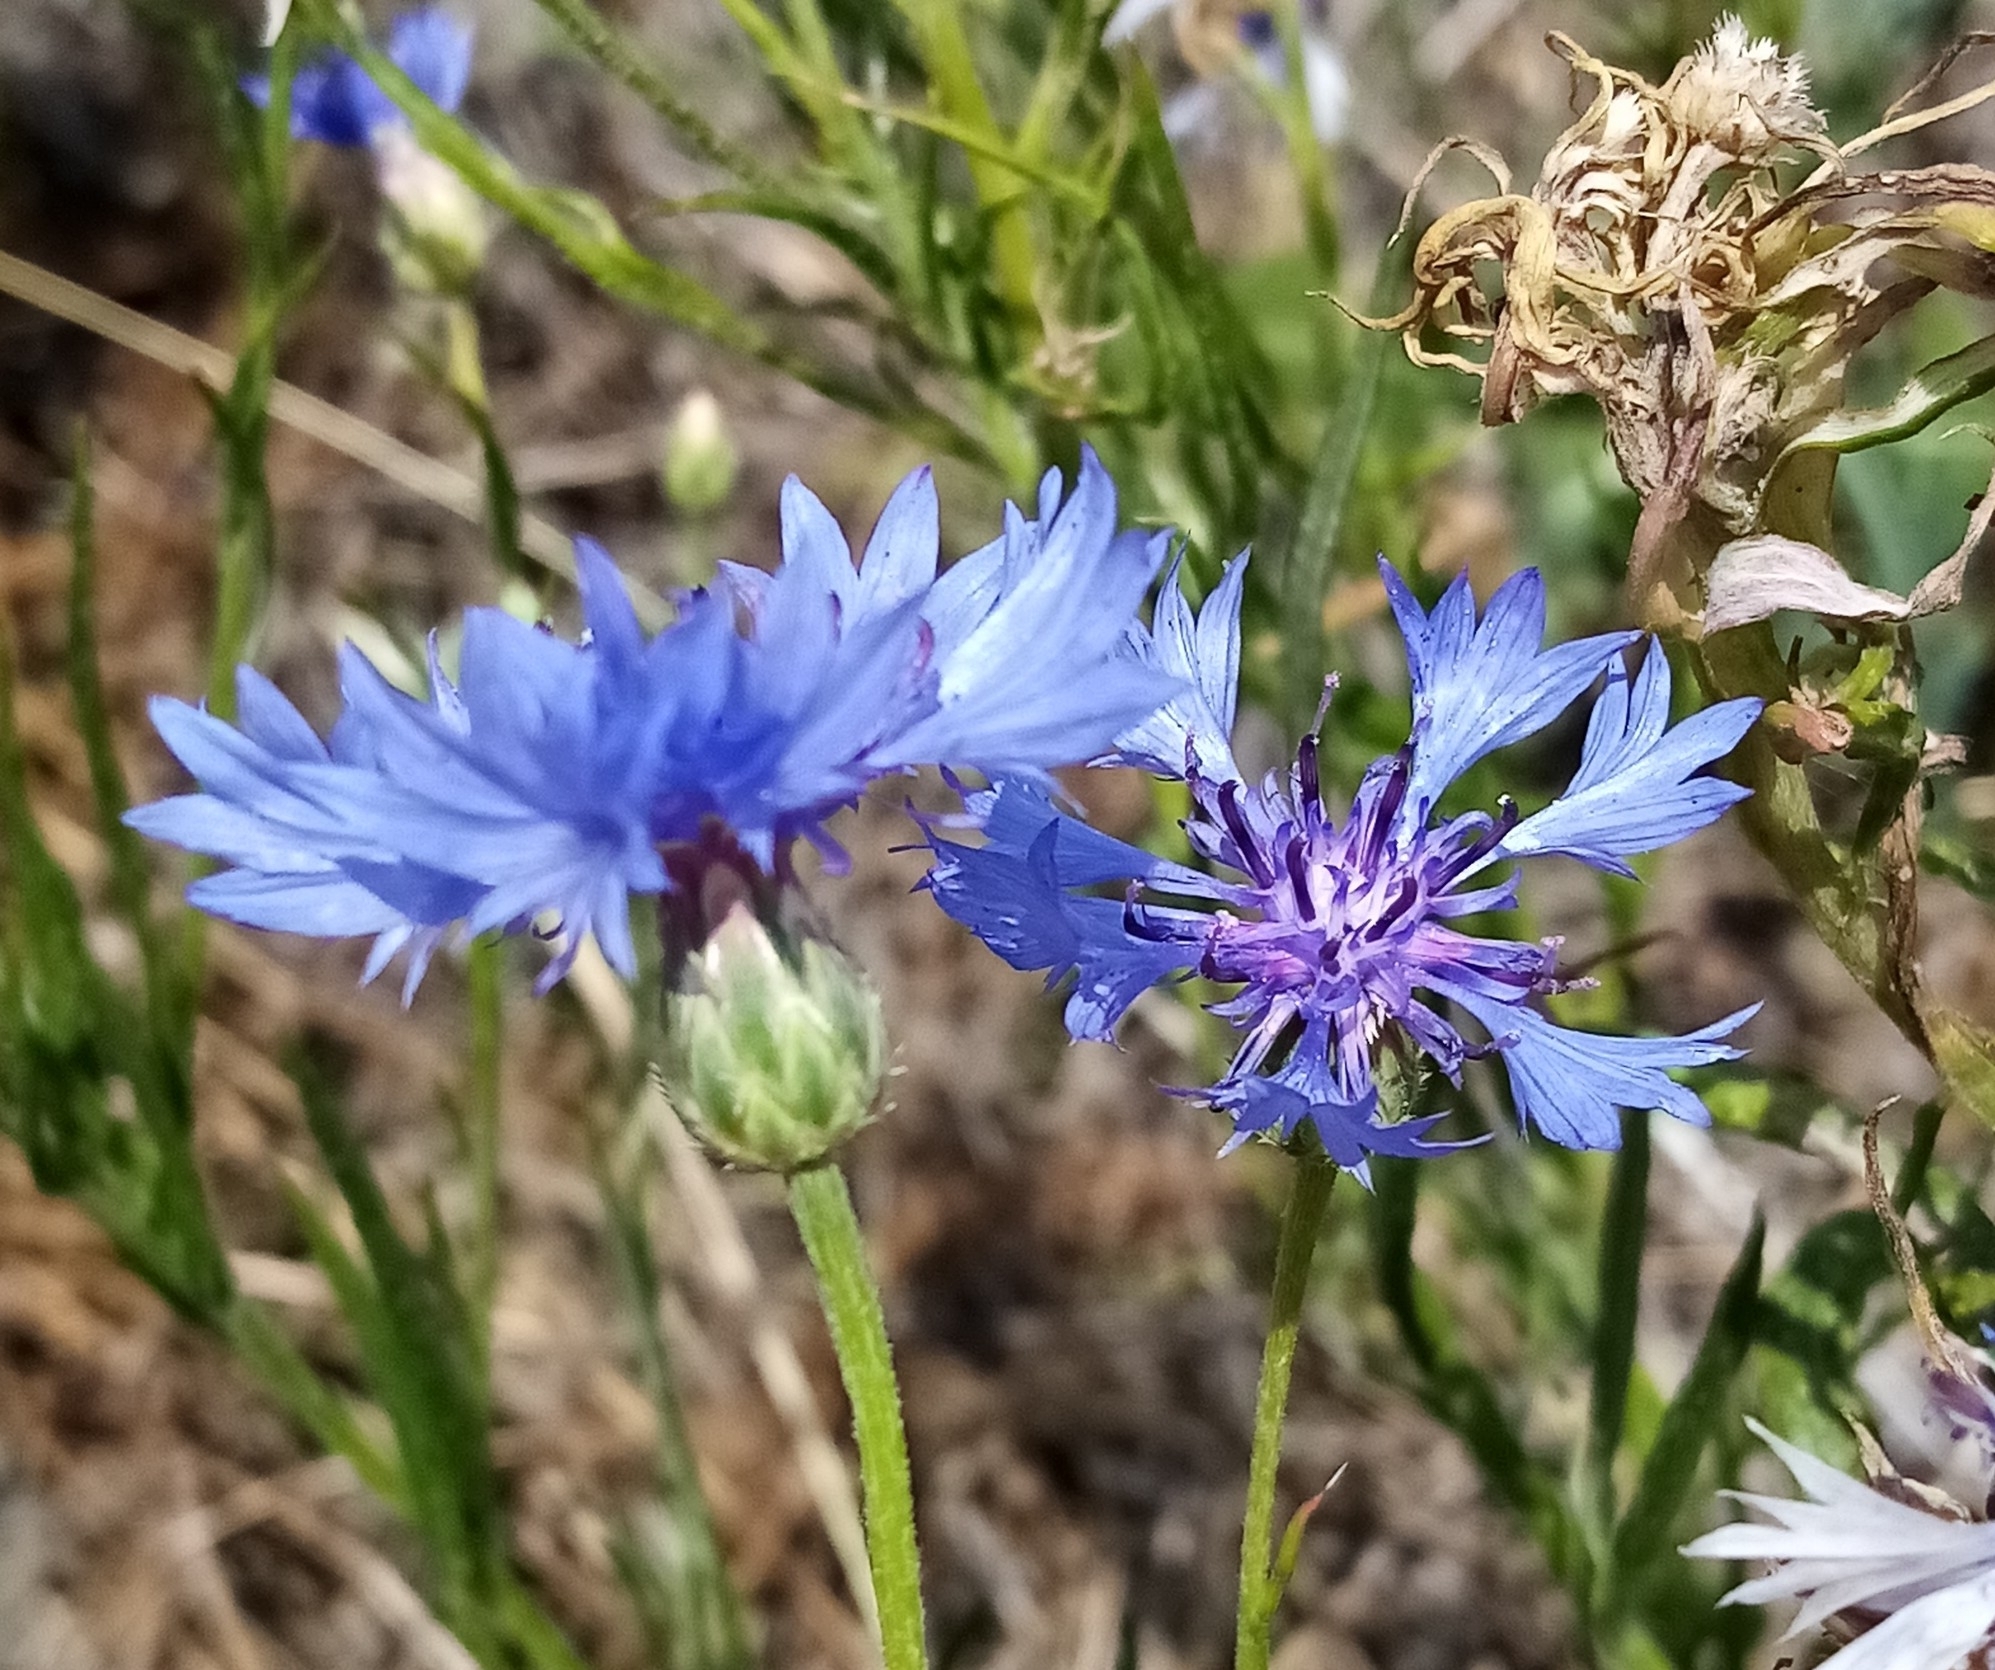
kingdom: Plantae
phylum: Tracheophyta
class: Magnoliopsida
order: Asterales
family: Asteraceae
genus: Centaurea
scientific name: Centaurea cyanus
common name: Cornflower
